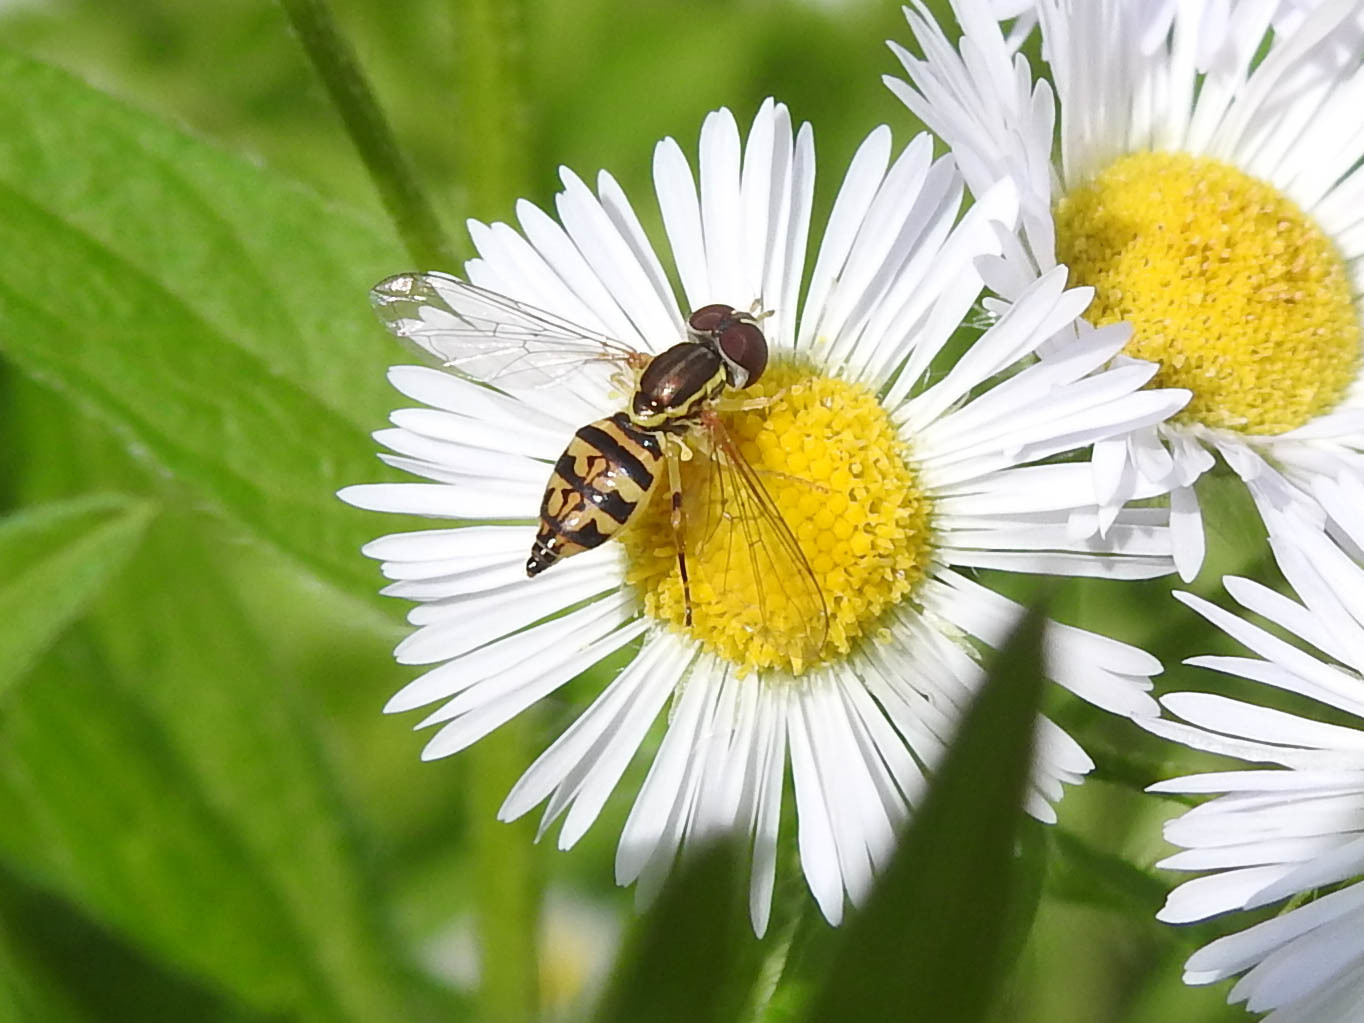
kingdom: Animalia
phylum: Arthropoda
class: Insecta
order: Diptera
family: Syrphidae
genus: Toxomerus
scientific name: Toxomerus geminatus
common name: Eastern calligrapher
